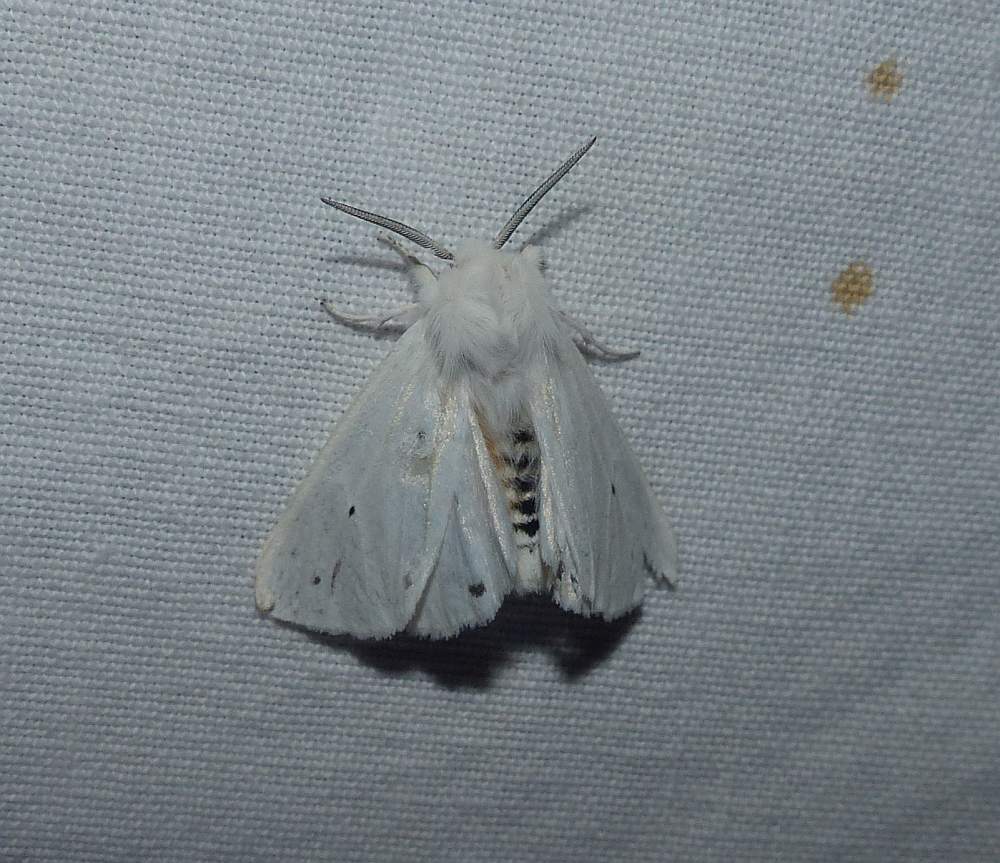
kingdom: Animalia
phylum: Arthropoda
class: Insecta
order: Lepidoptera
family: Erebidae
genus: Spilosoma
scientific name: Spilosoma virginica
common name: Virginia tiger moth
